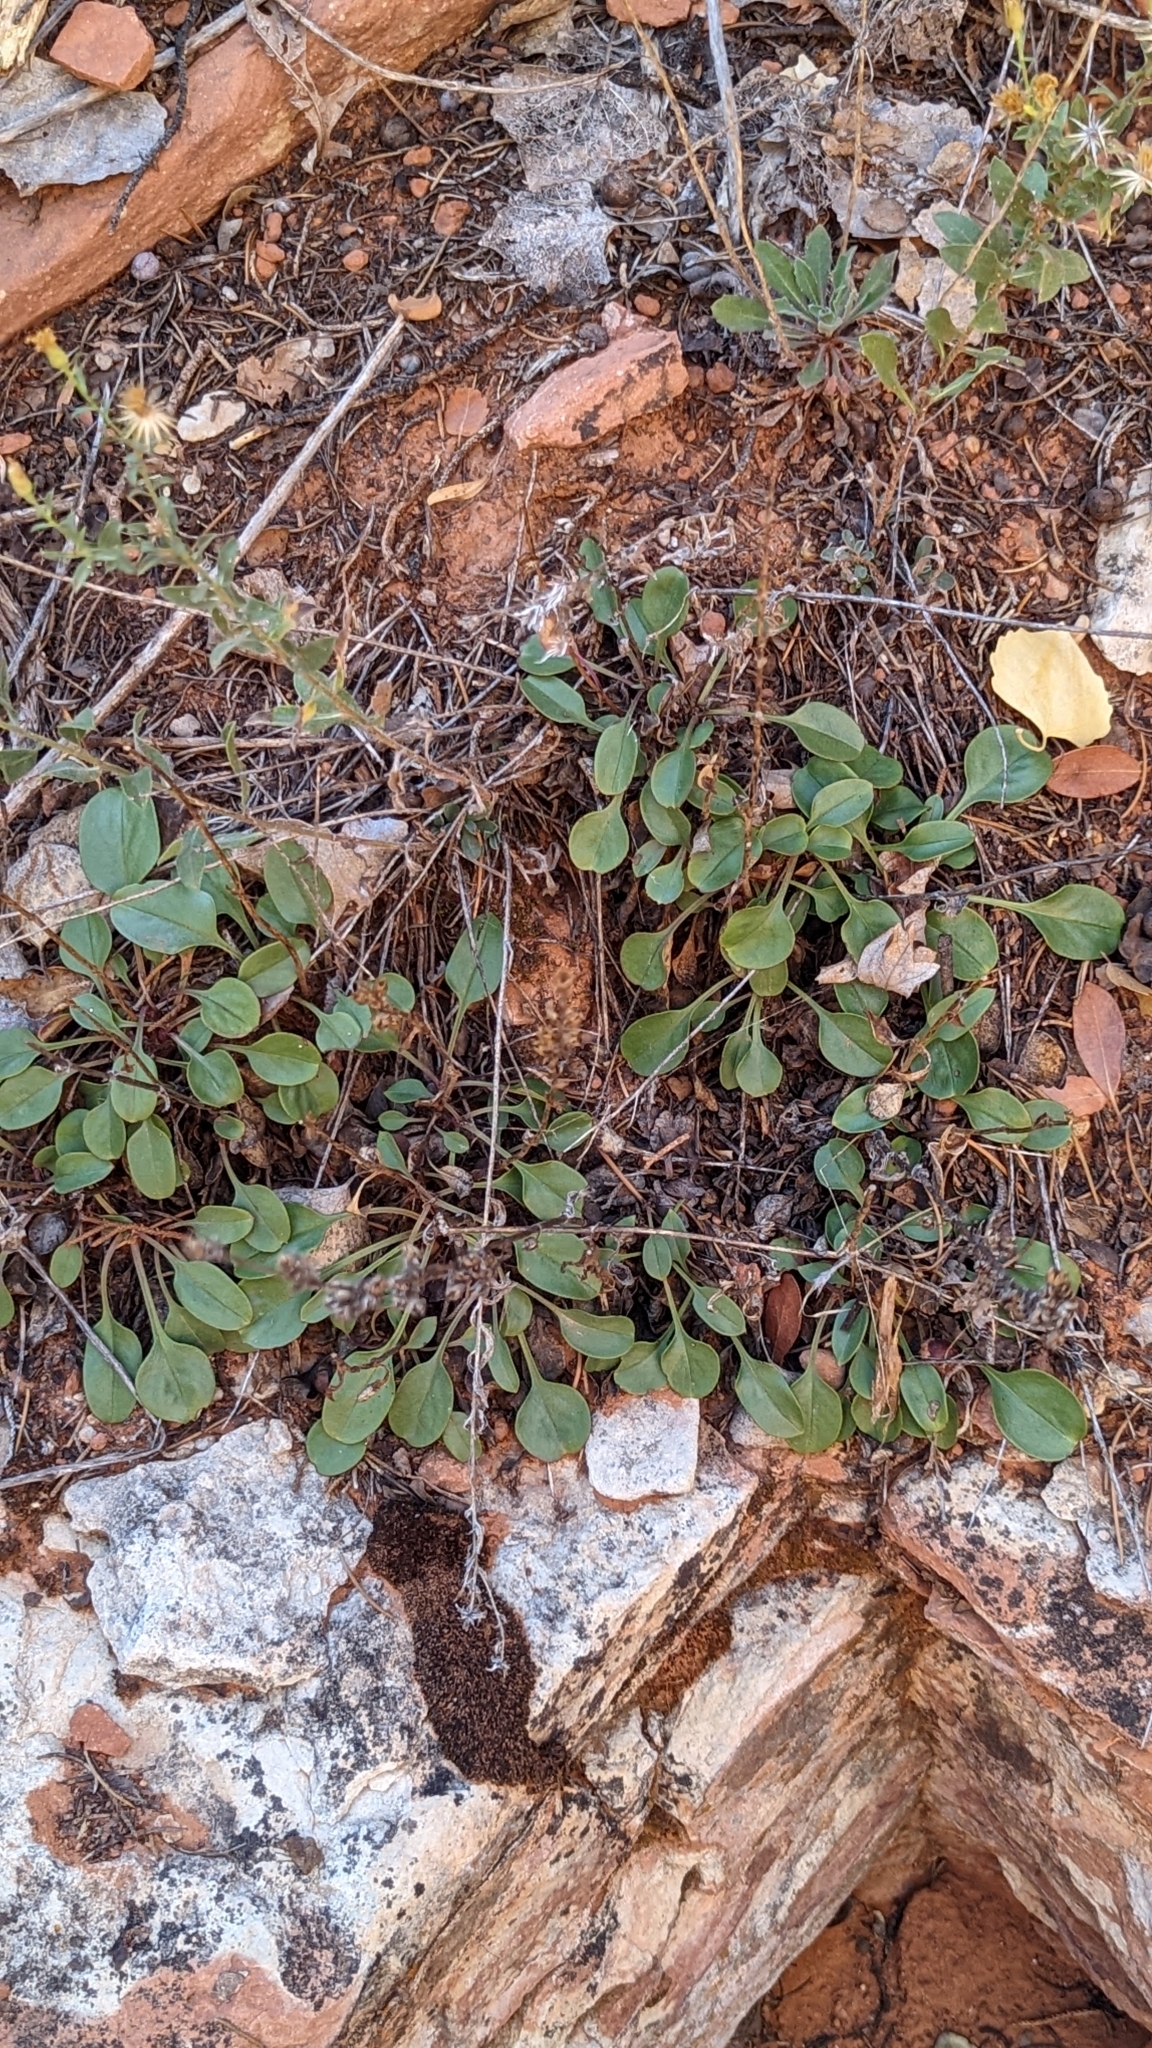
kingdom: Plantae
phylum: Tracheophyta
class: Magnoliopsida
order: Lamiales
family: Plantaginaceae
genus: Penstemon
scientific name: Penstemon humilis
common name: Low penstemon
